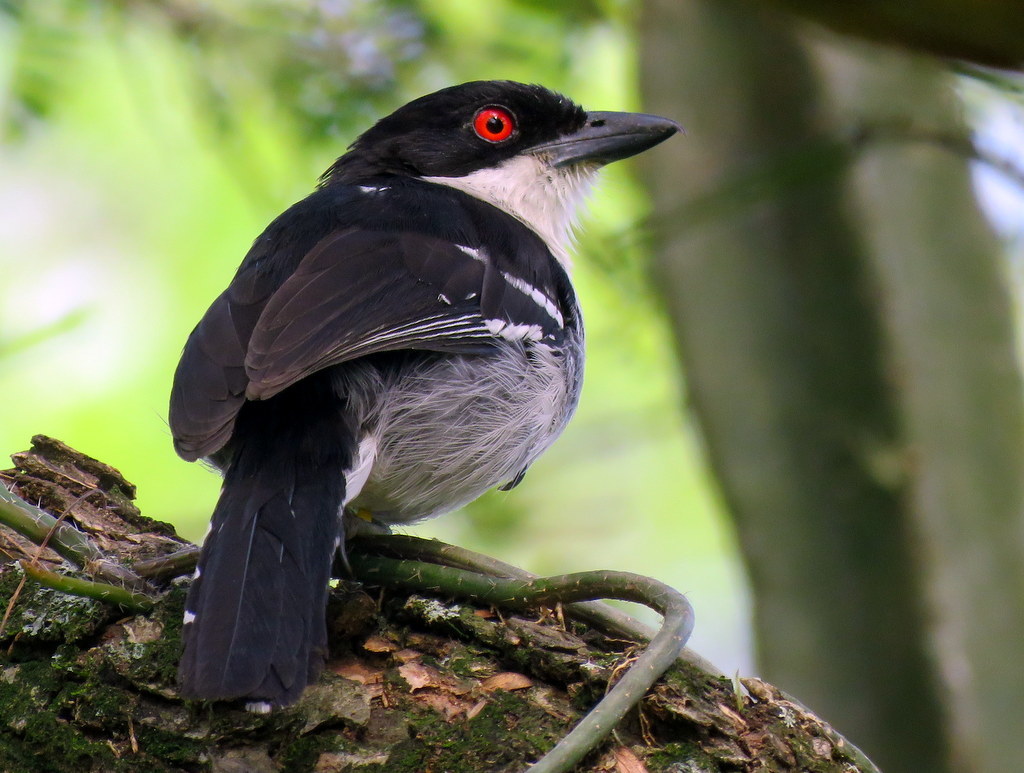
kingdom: Animalia
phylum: Chordata
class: Aves
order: Passeriformes
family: Thamnophilidae
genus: Taraba
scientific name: Taraba major
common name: Great antshrike
